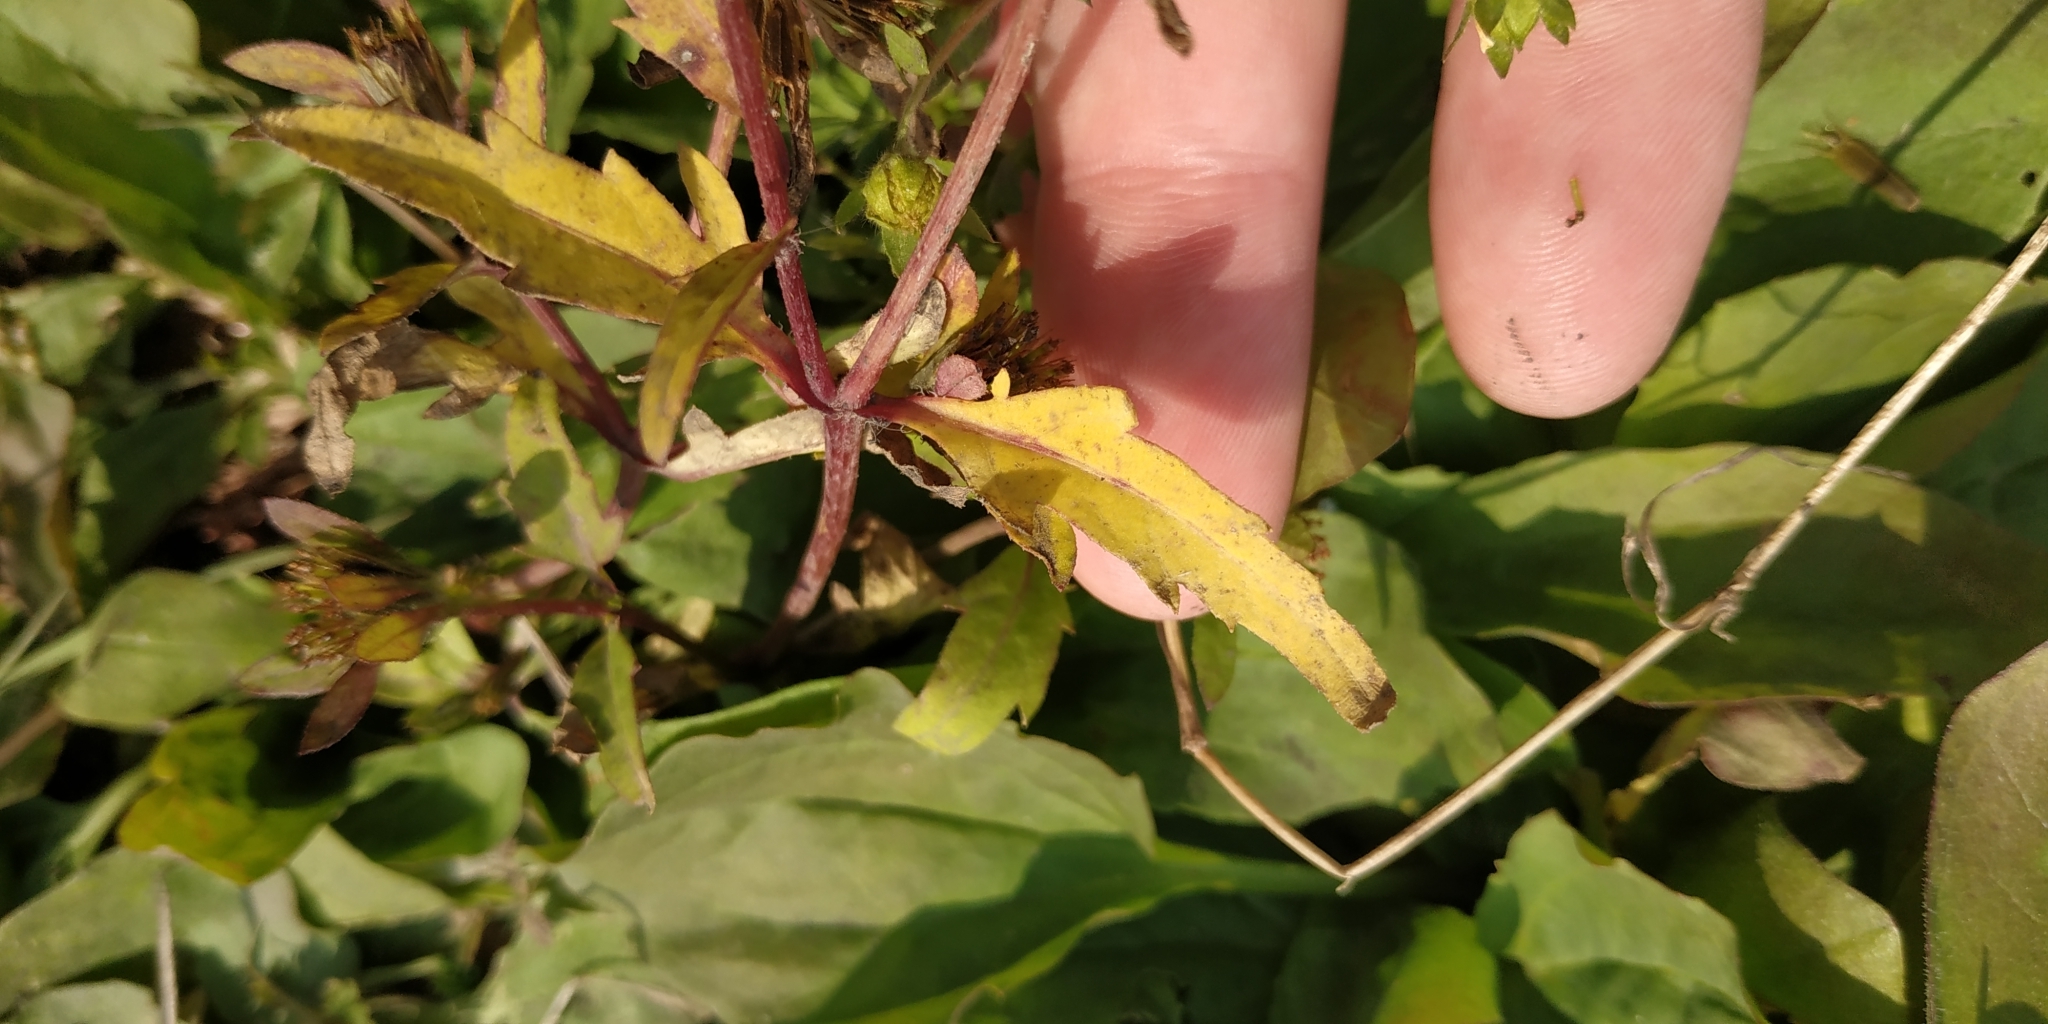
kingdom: Plantae
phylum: Tracheophyta
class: Magnoliopsida
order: Asterales
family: Asteraceae
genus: Bidens
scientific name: Bidens tripartita
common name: Trifid bur-marigold
